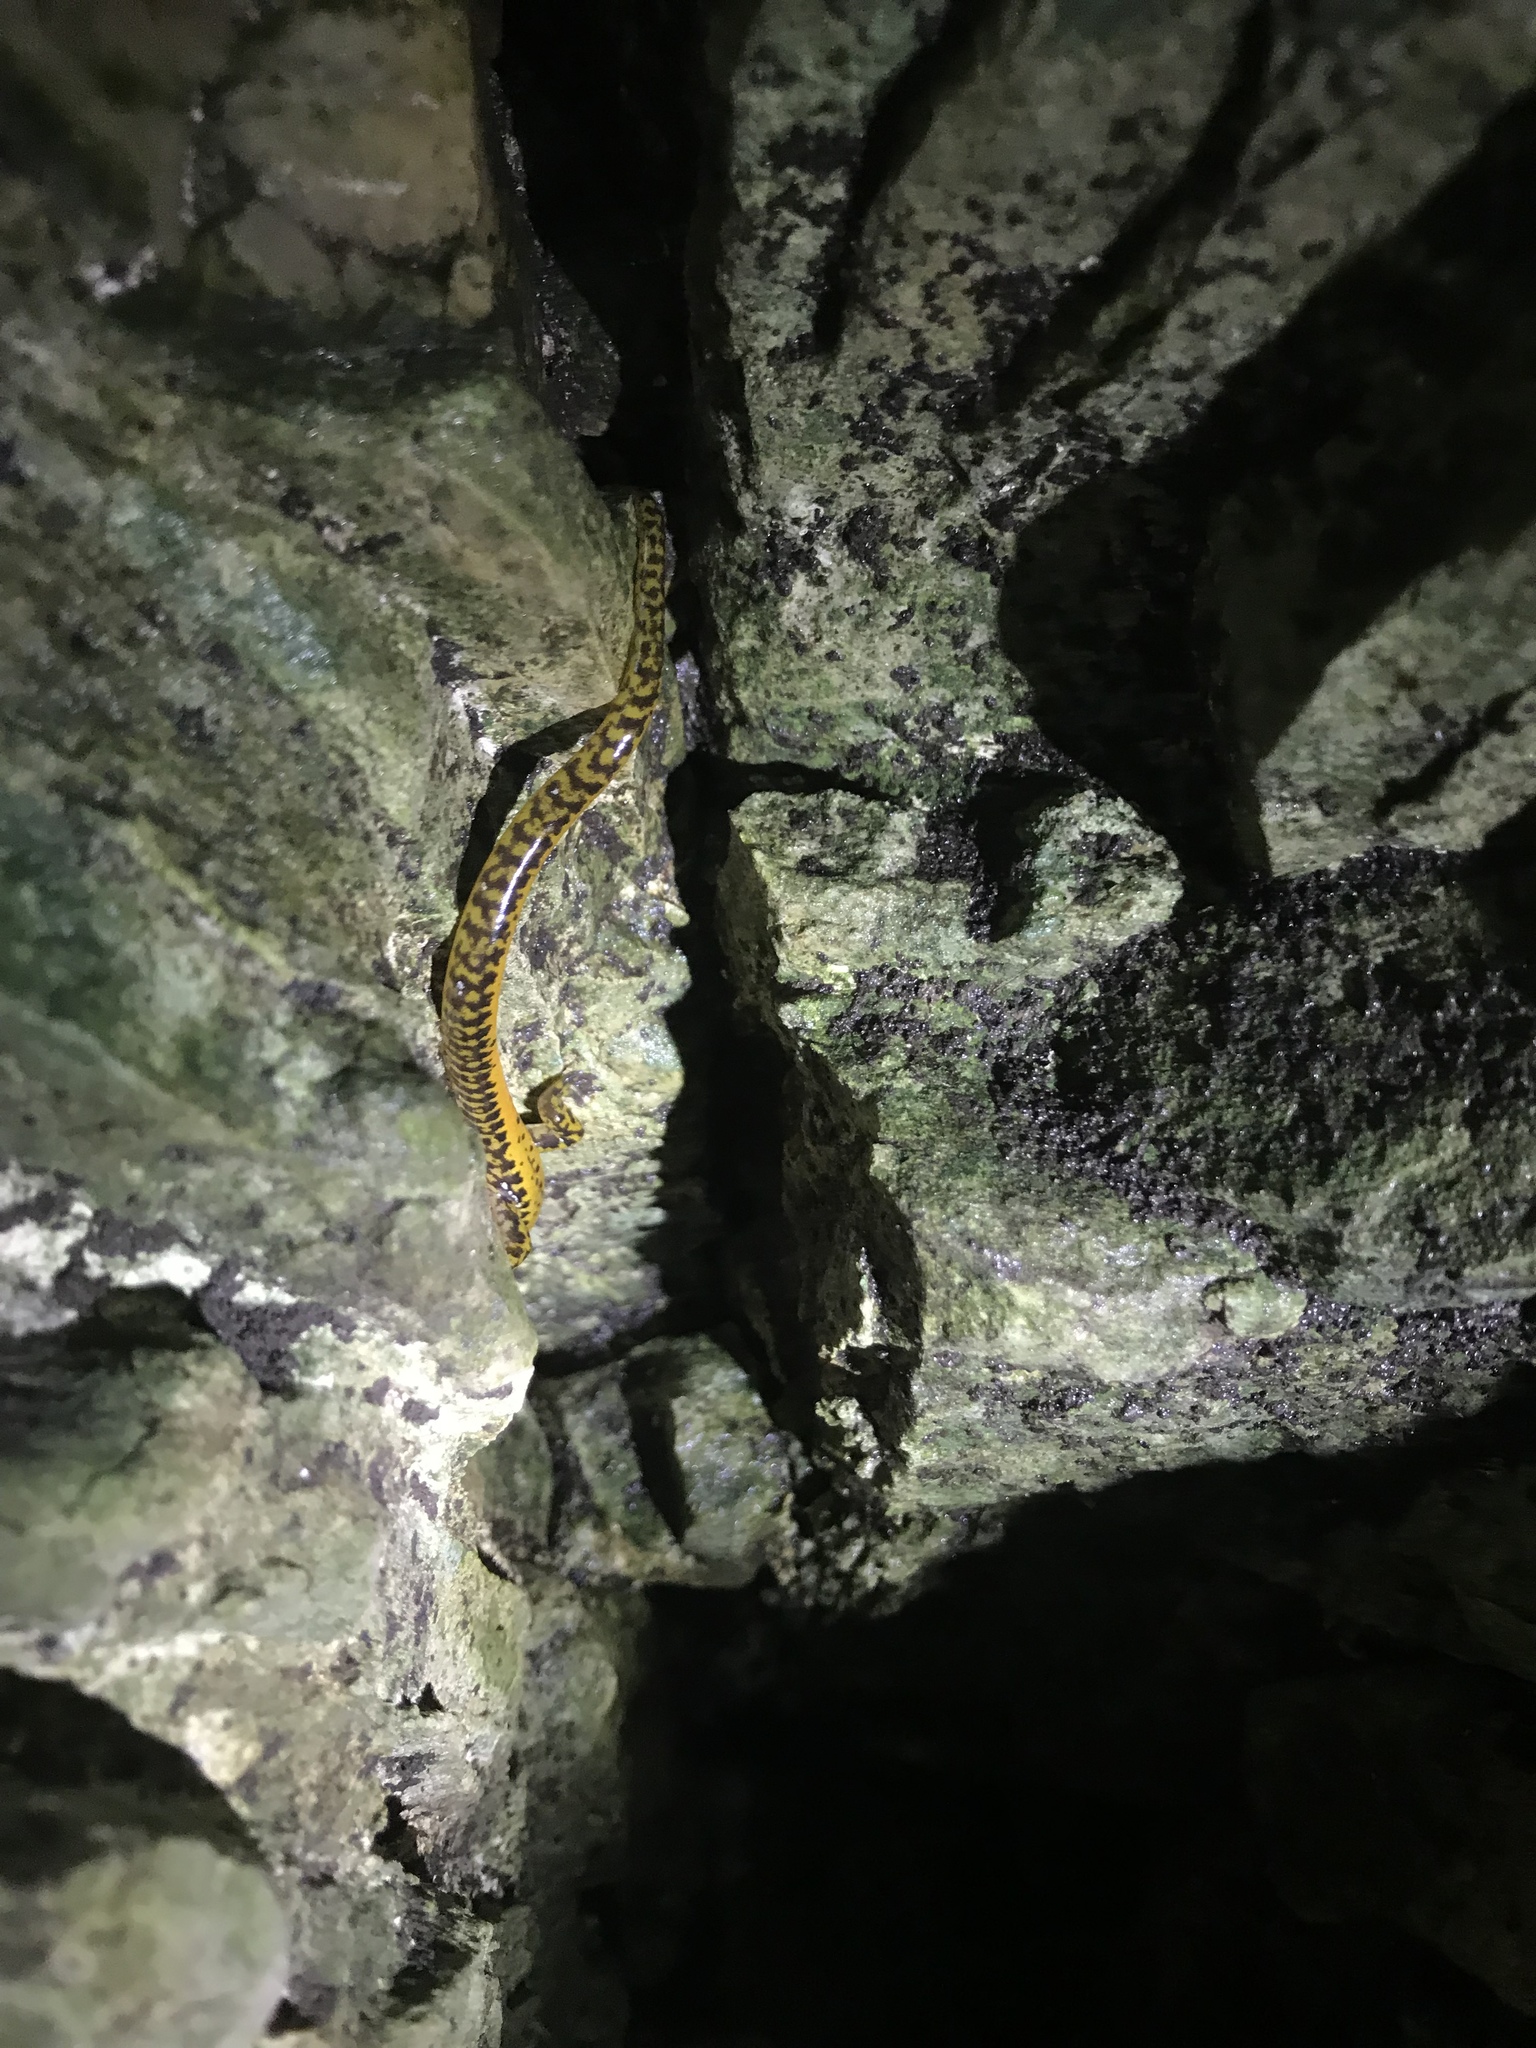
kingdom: Animalia
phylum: Chordata
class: Amphibia
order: Caudata
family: Plethodontidae
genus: Eurycea
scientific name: Eurycea longicauda
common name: Long-tailed salamander
